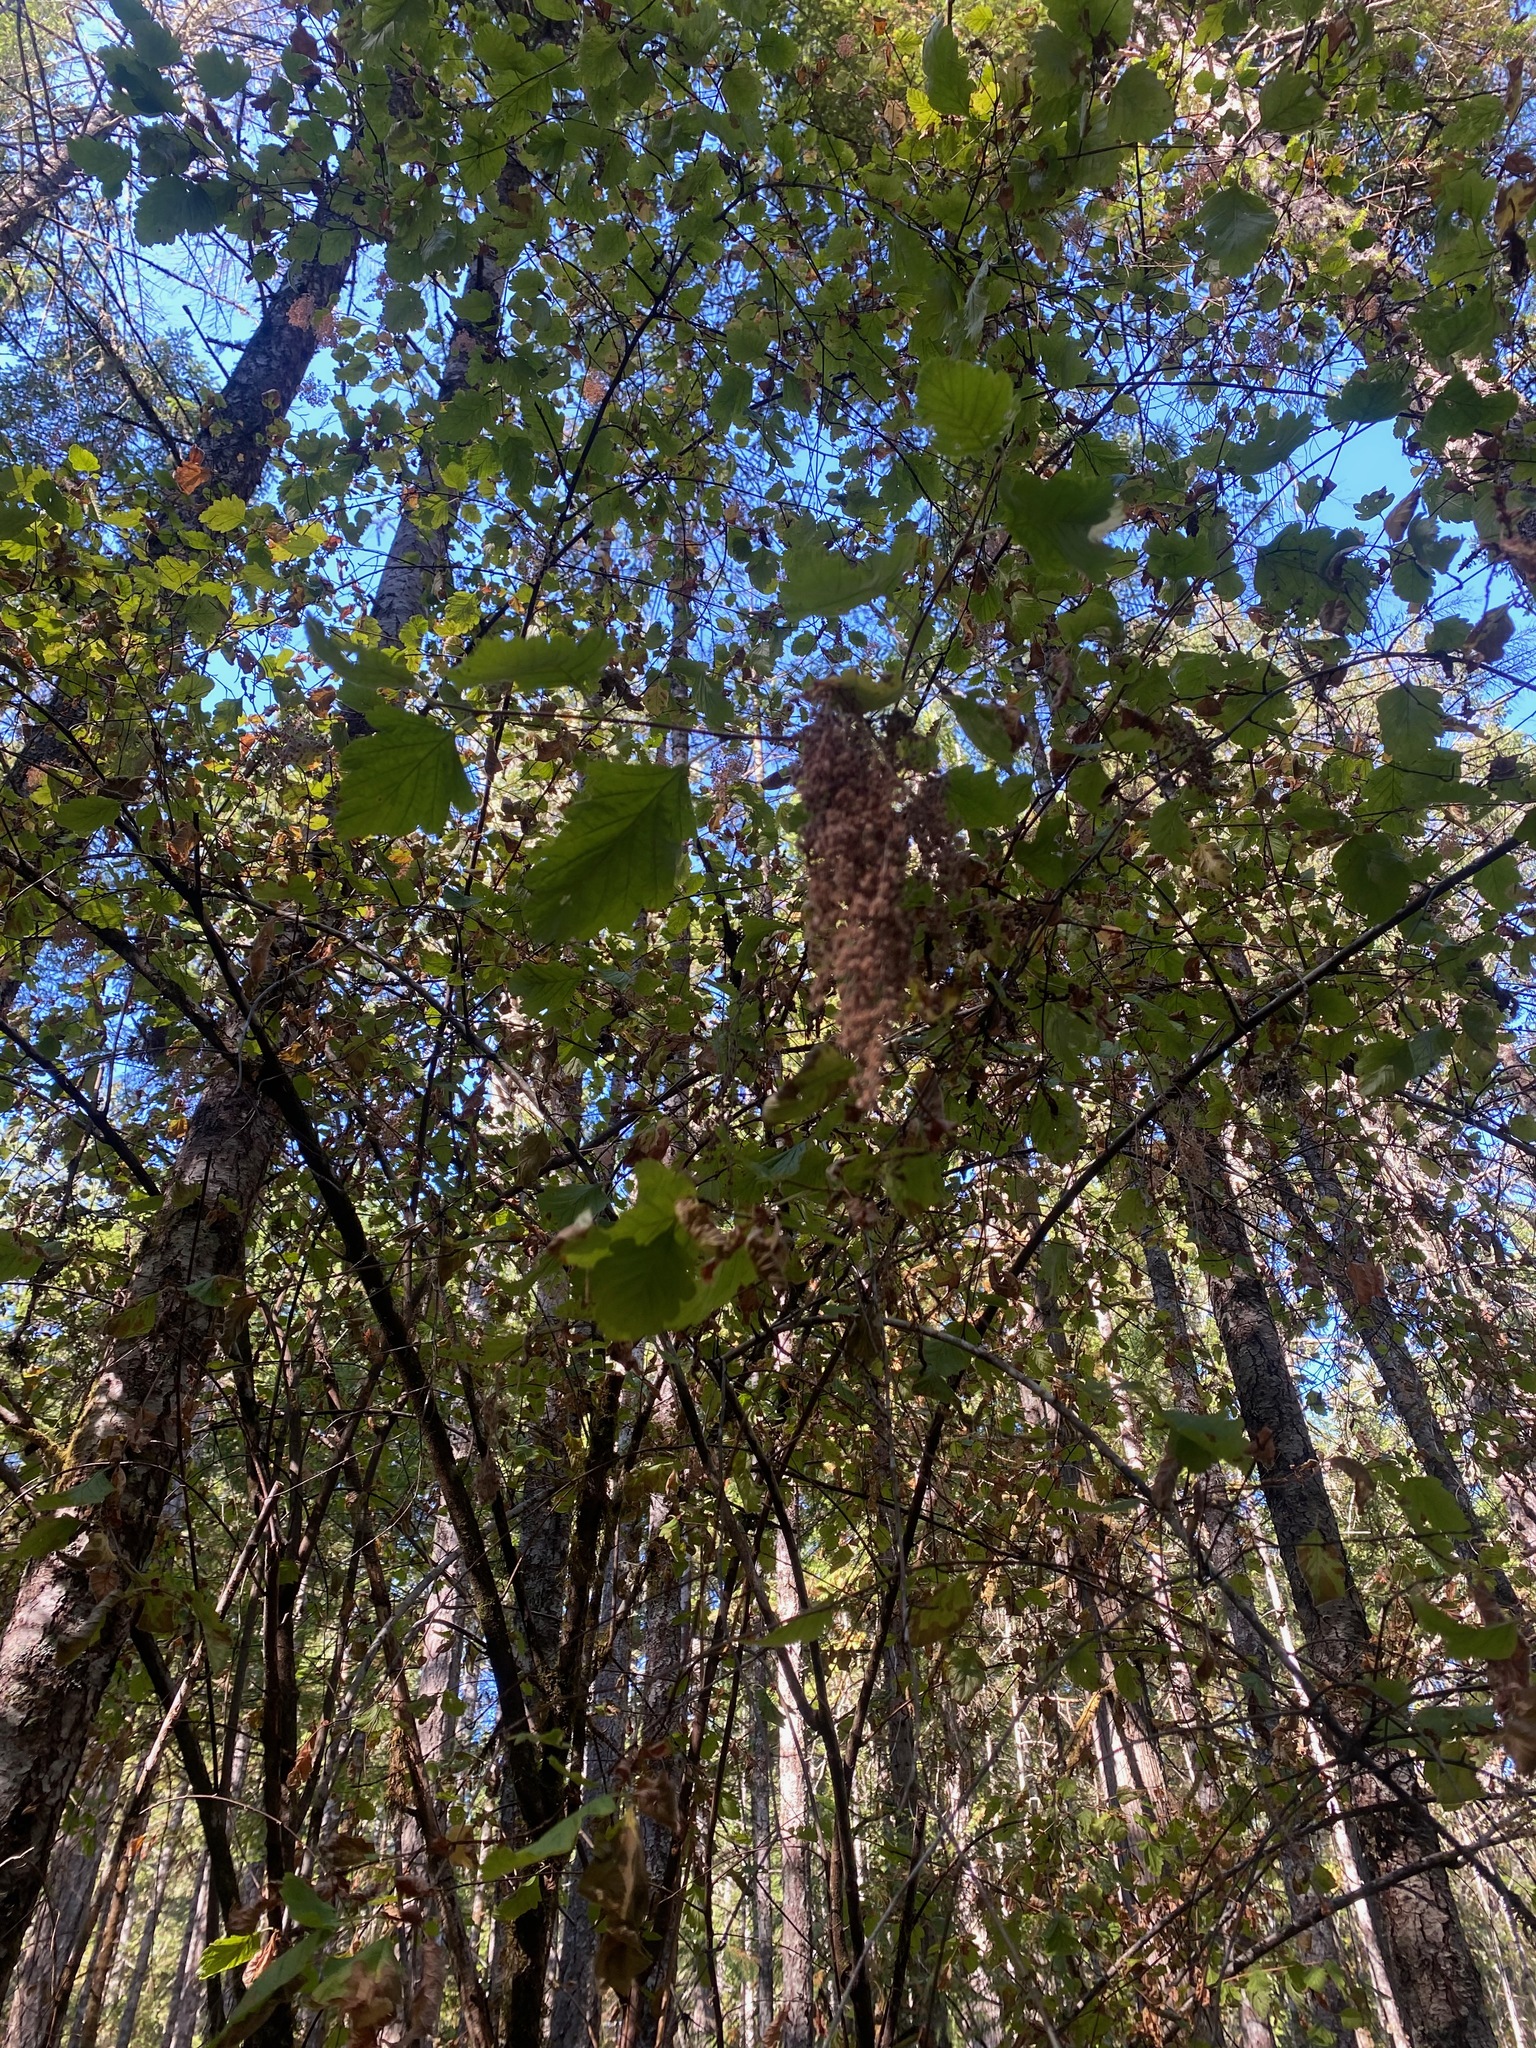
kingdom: Plantae
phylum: Tracheophyta
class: Magnoliopsida
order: Rosales
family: Rosaceae
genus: Holodiscus
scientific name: Holodiscus discolor
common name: Oceanspray
